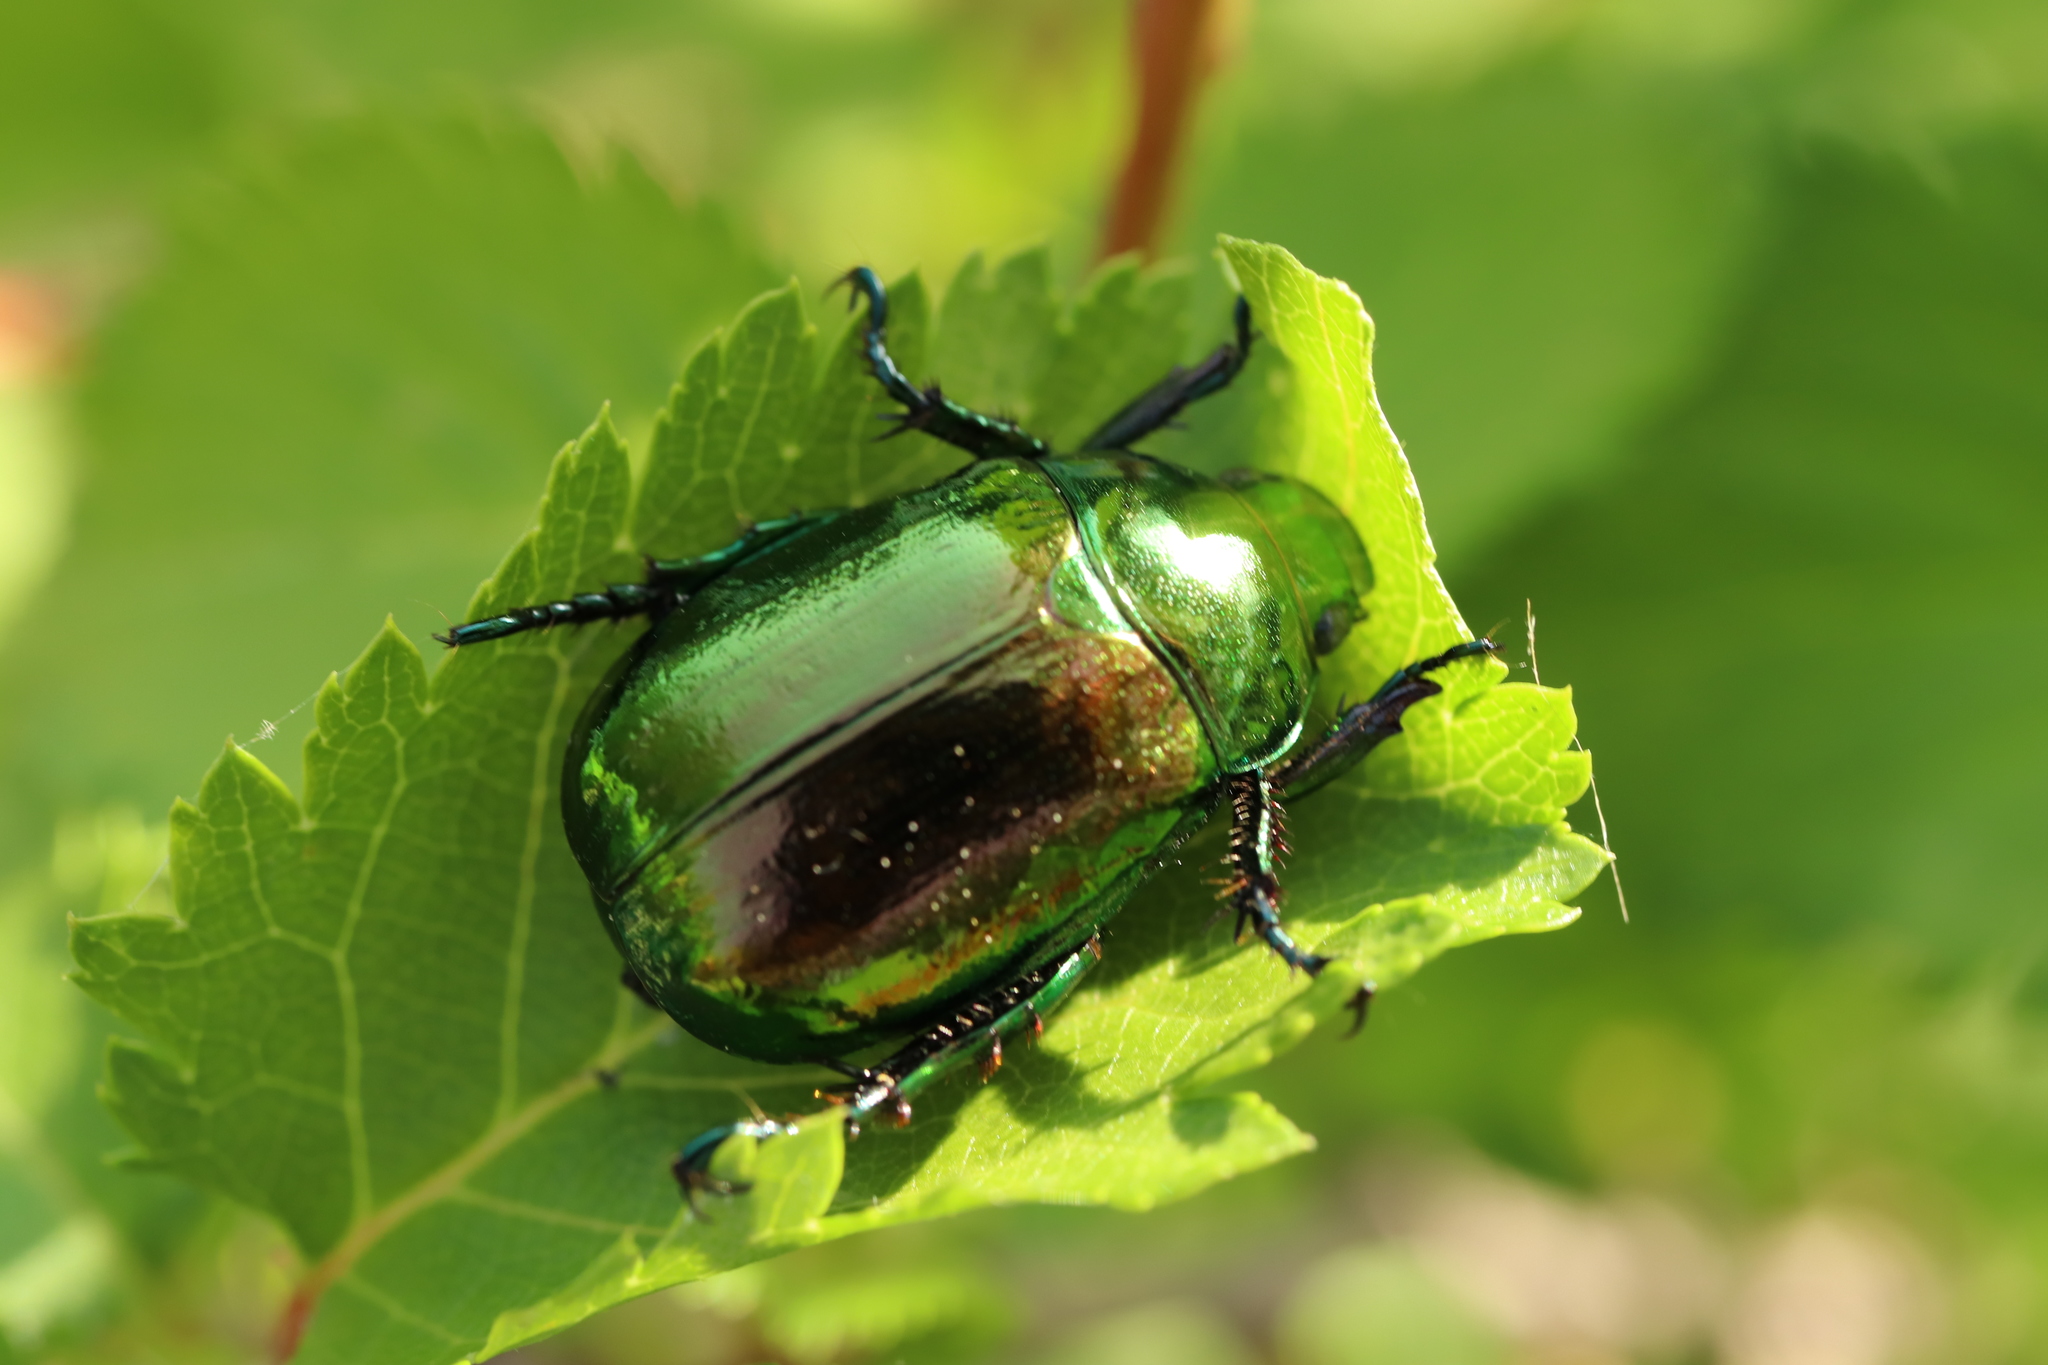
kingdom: Animalia
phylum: Arthropoda
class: Insecta
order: Coleoptera
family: Scarabaeidae
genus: Mimela
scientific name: Mimela splendens
